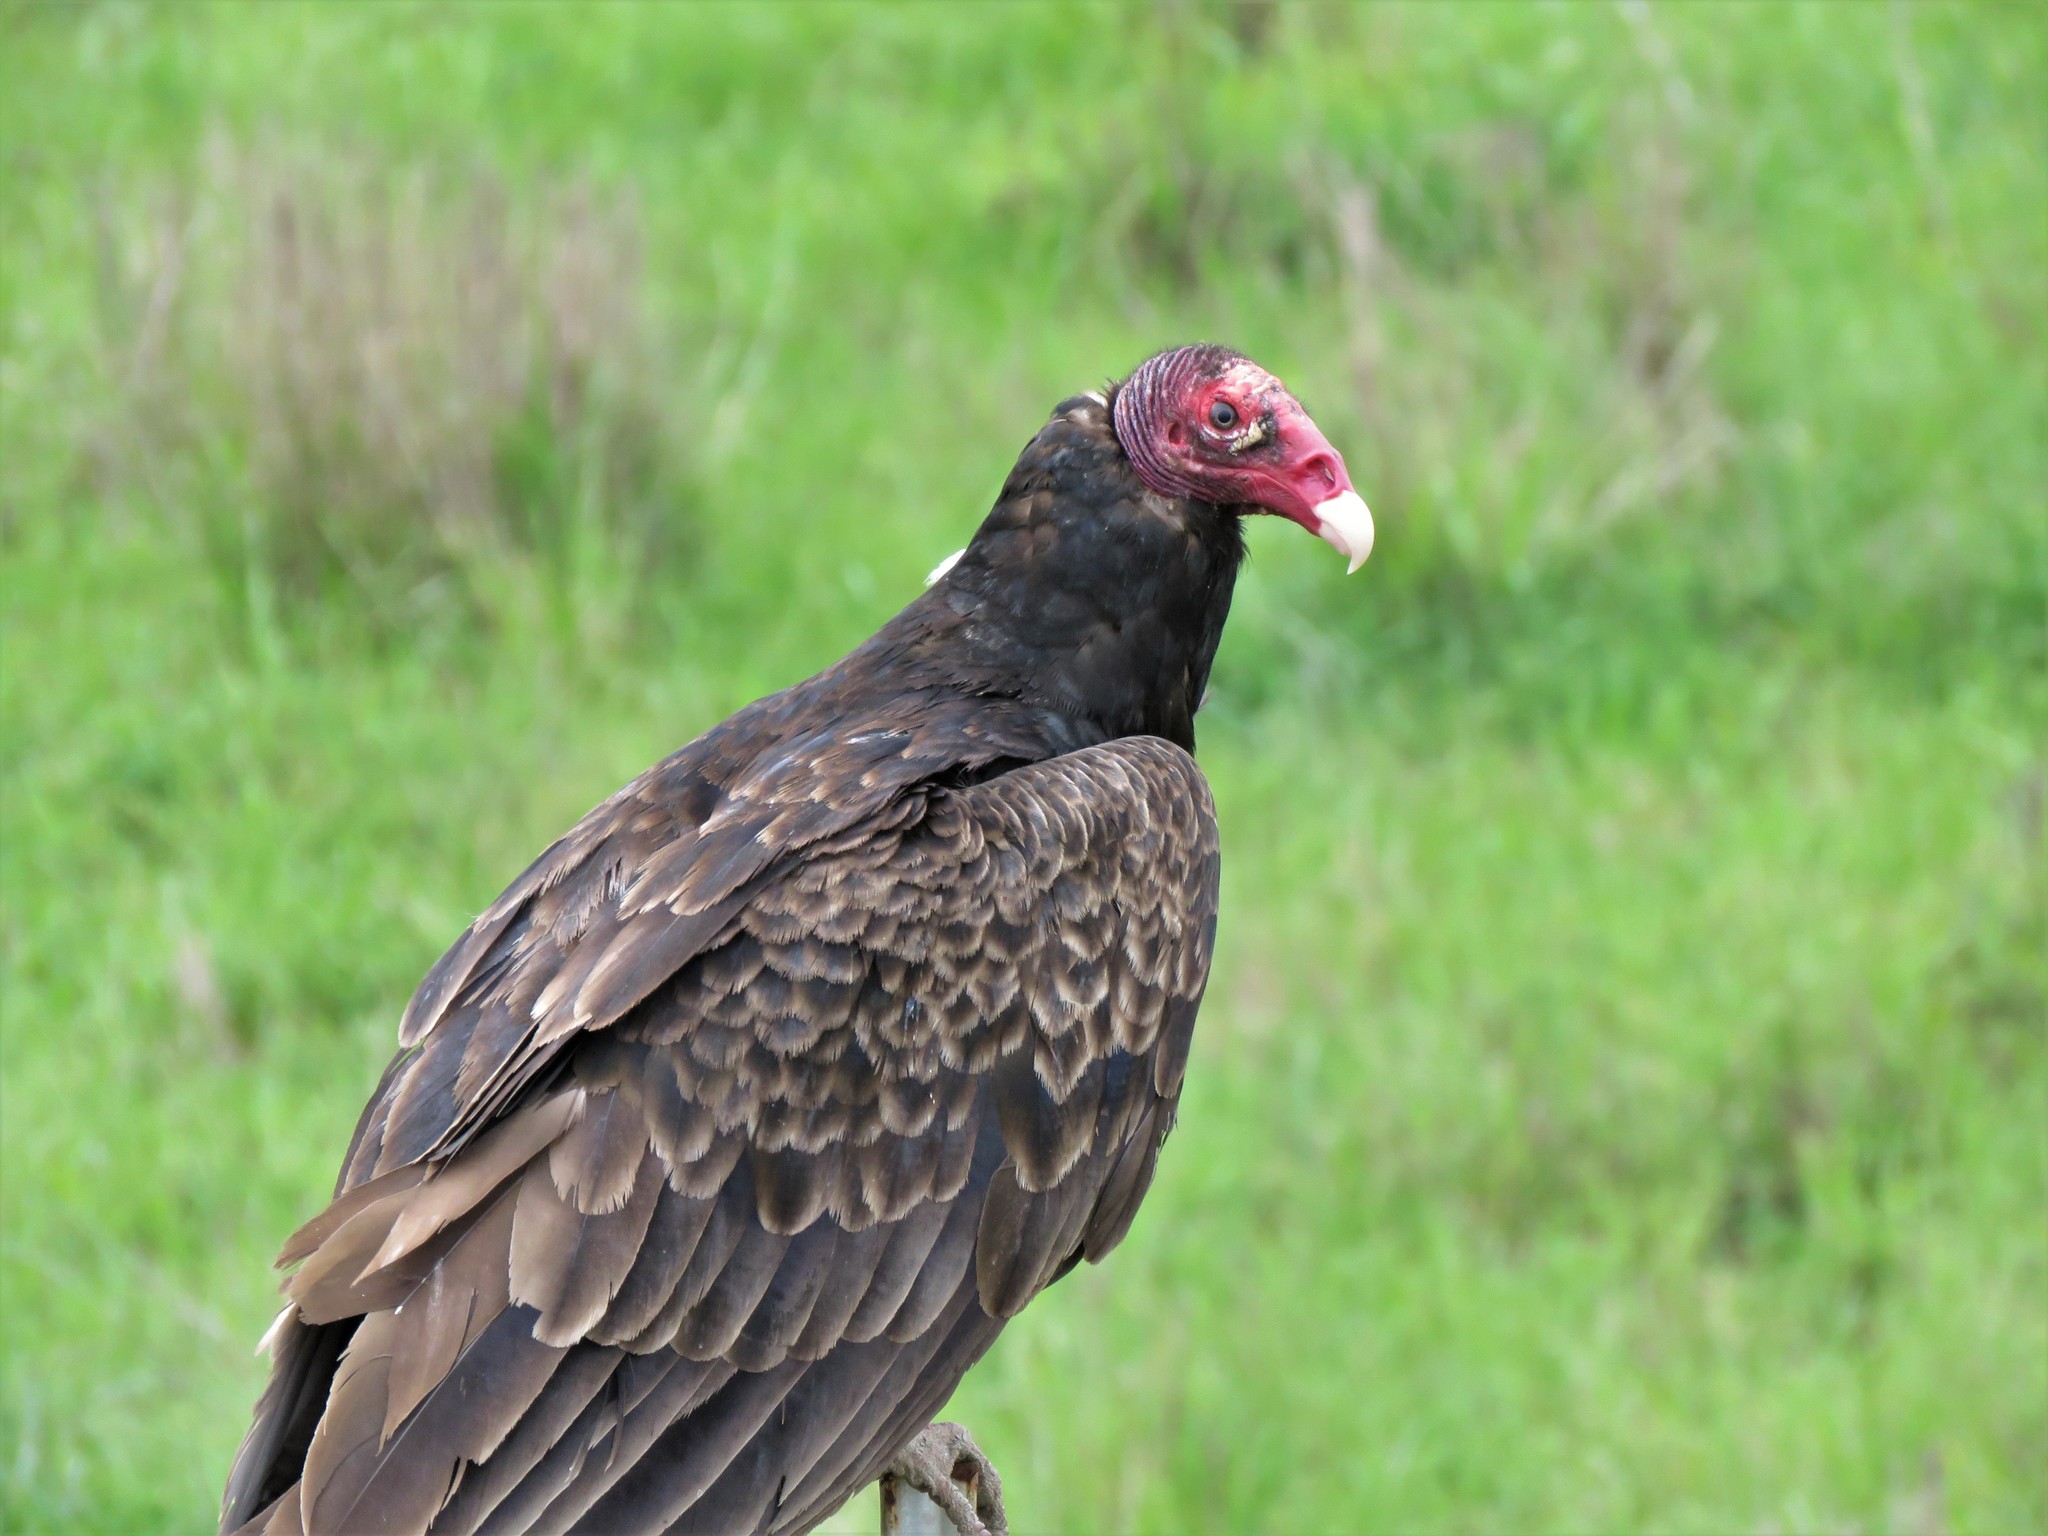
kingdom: Animalia
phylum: Chordata
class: Aves
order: Accipitriformes
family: Cathartidae
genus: Cathartes
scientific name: Cathartes aura
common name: Turkey vulture
